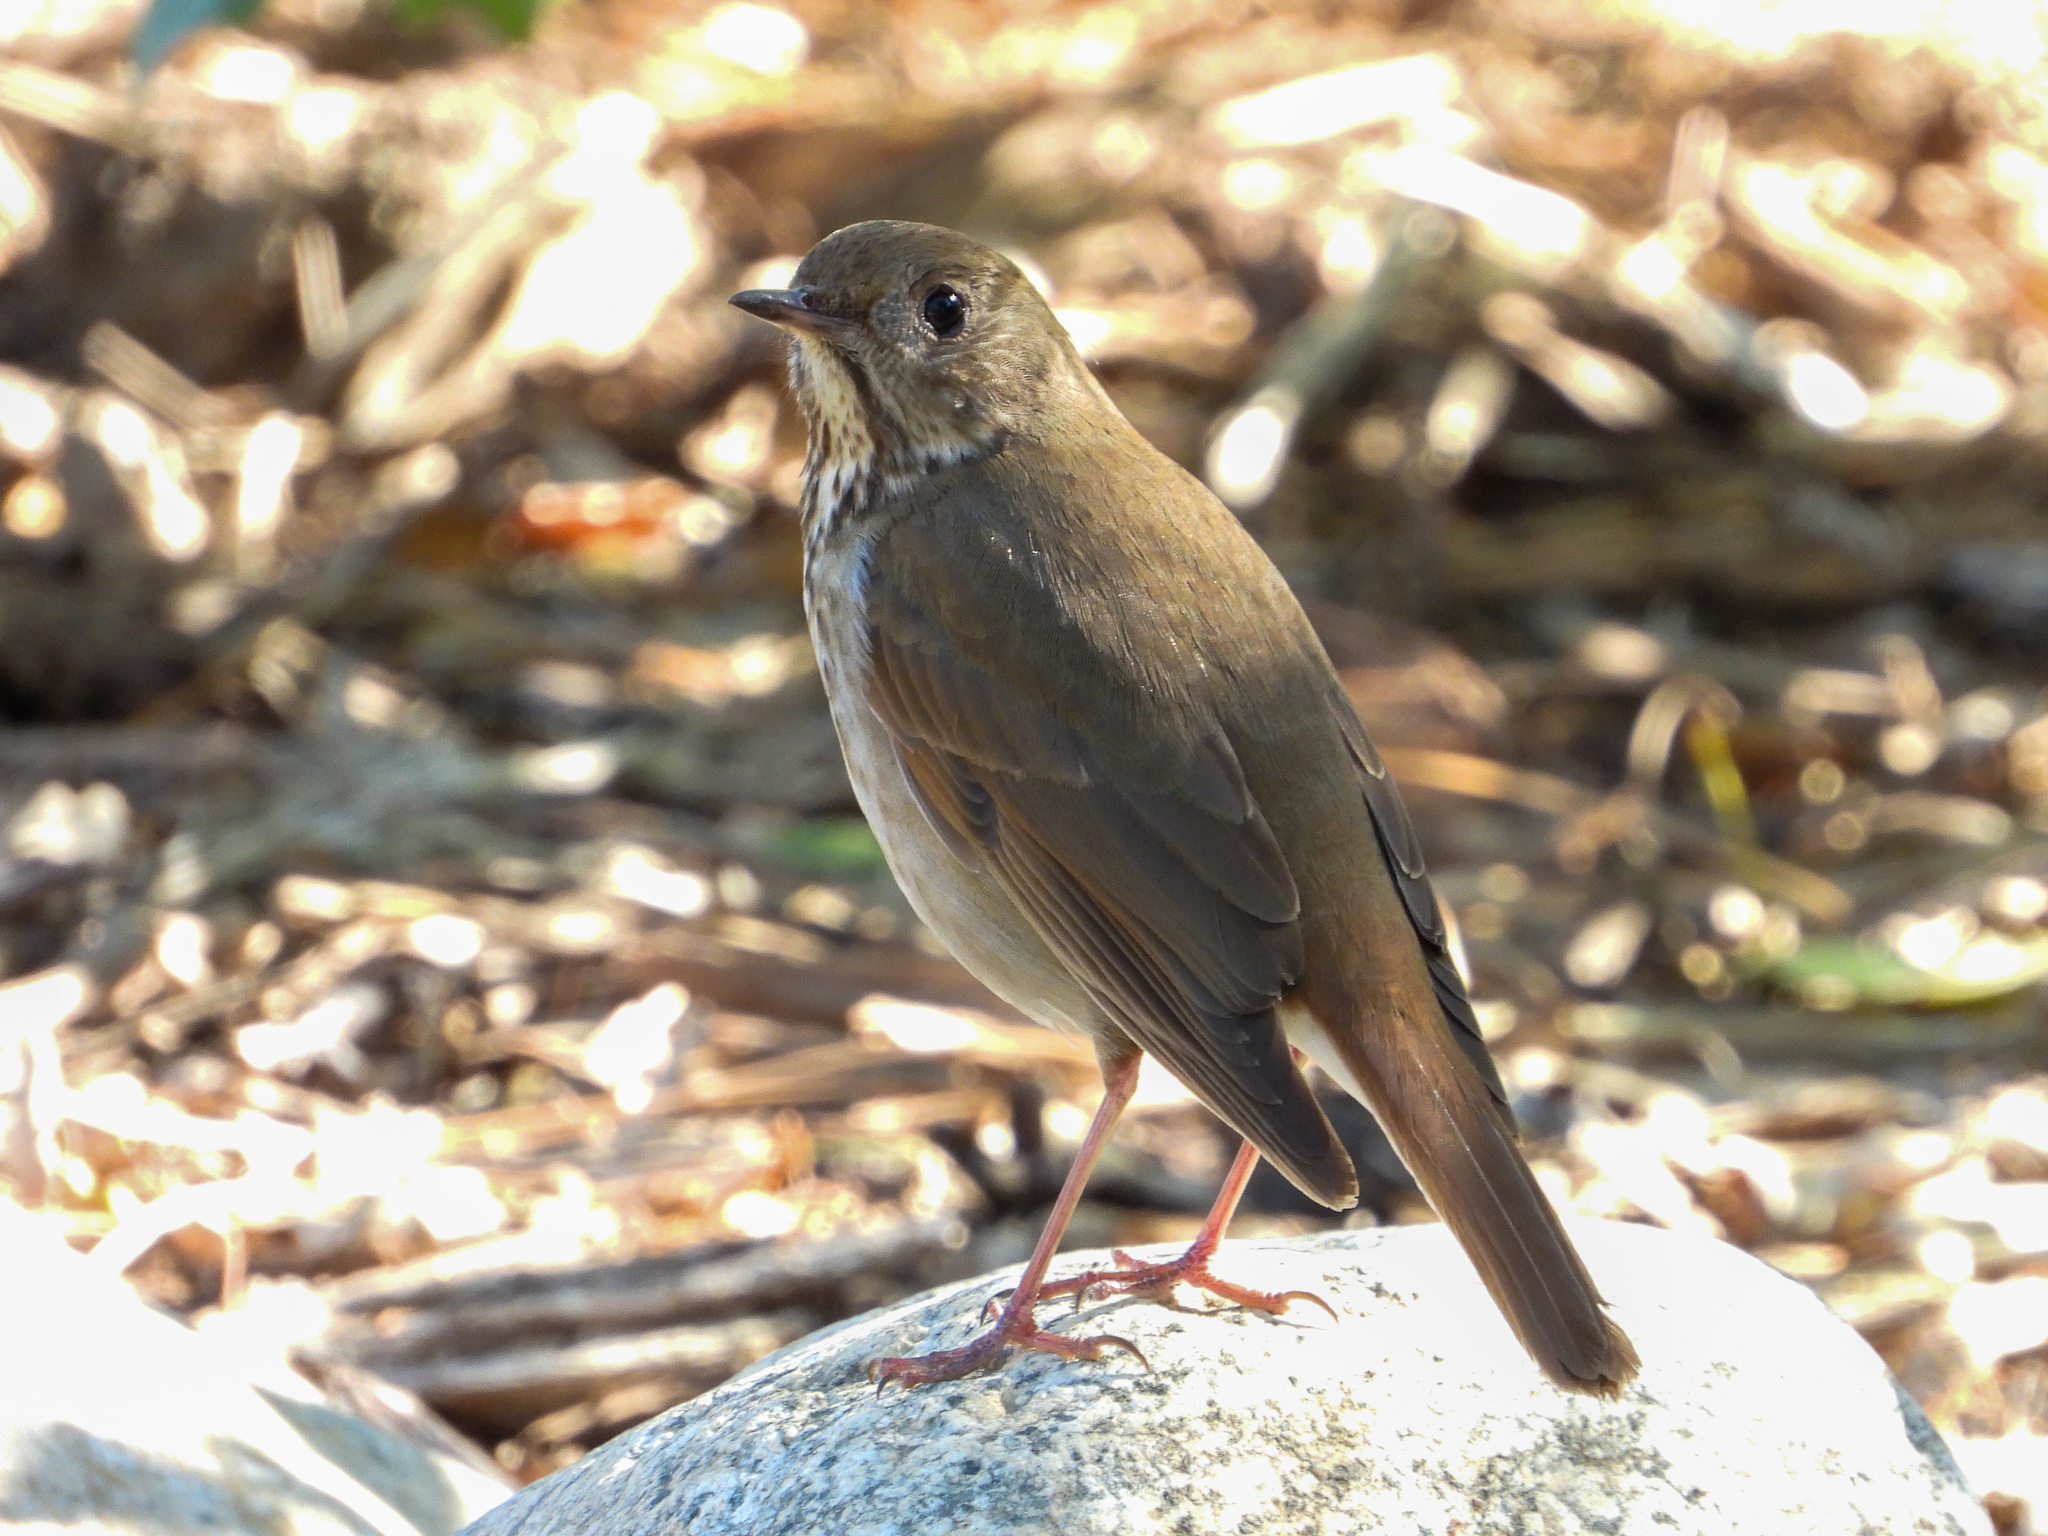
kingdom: Animalia
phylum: Chordata
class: Aves
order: Passeriformes
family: Turdidae
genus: Catharus
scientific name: Catharus guttatus
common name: Hermit thrush
